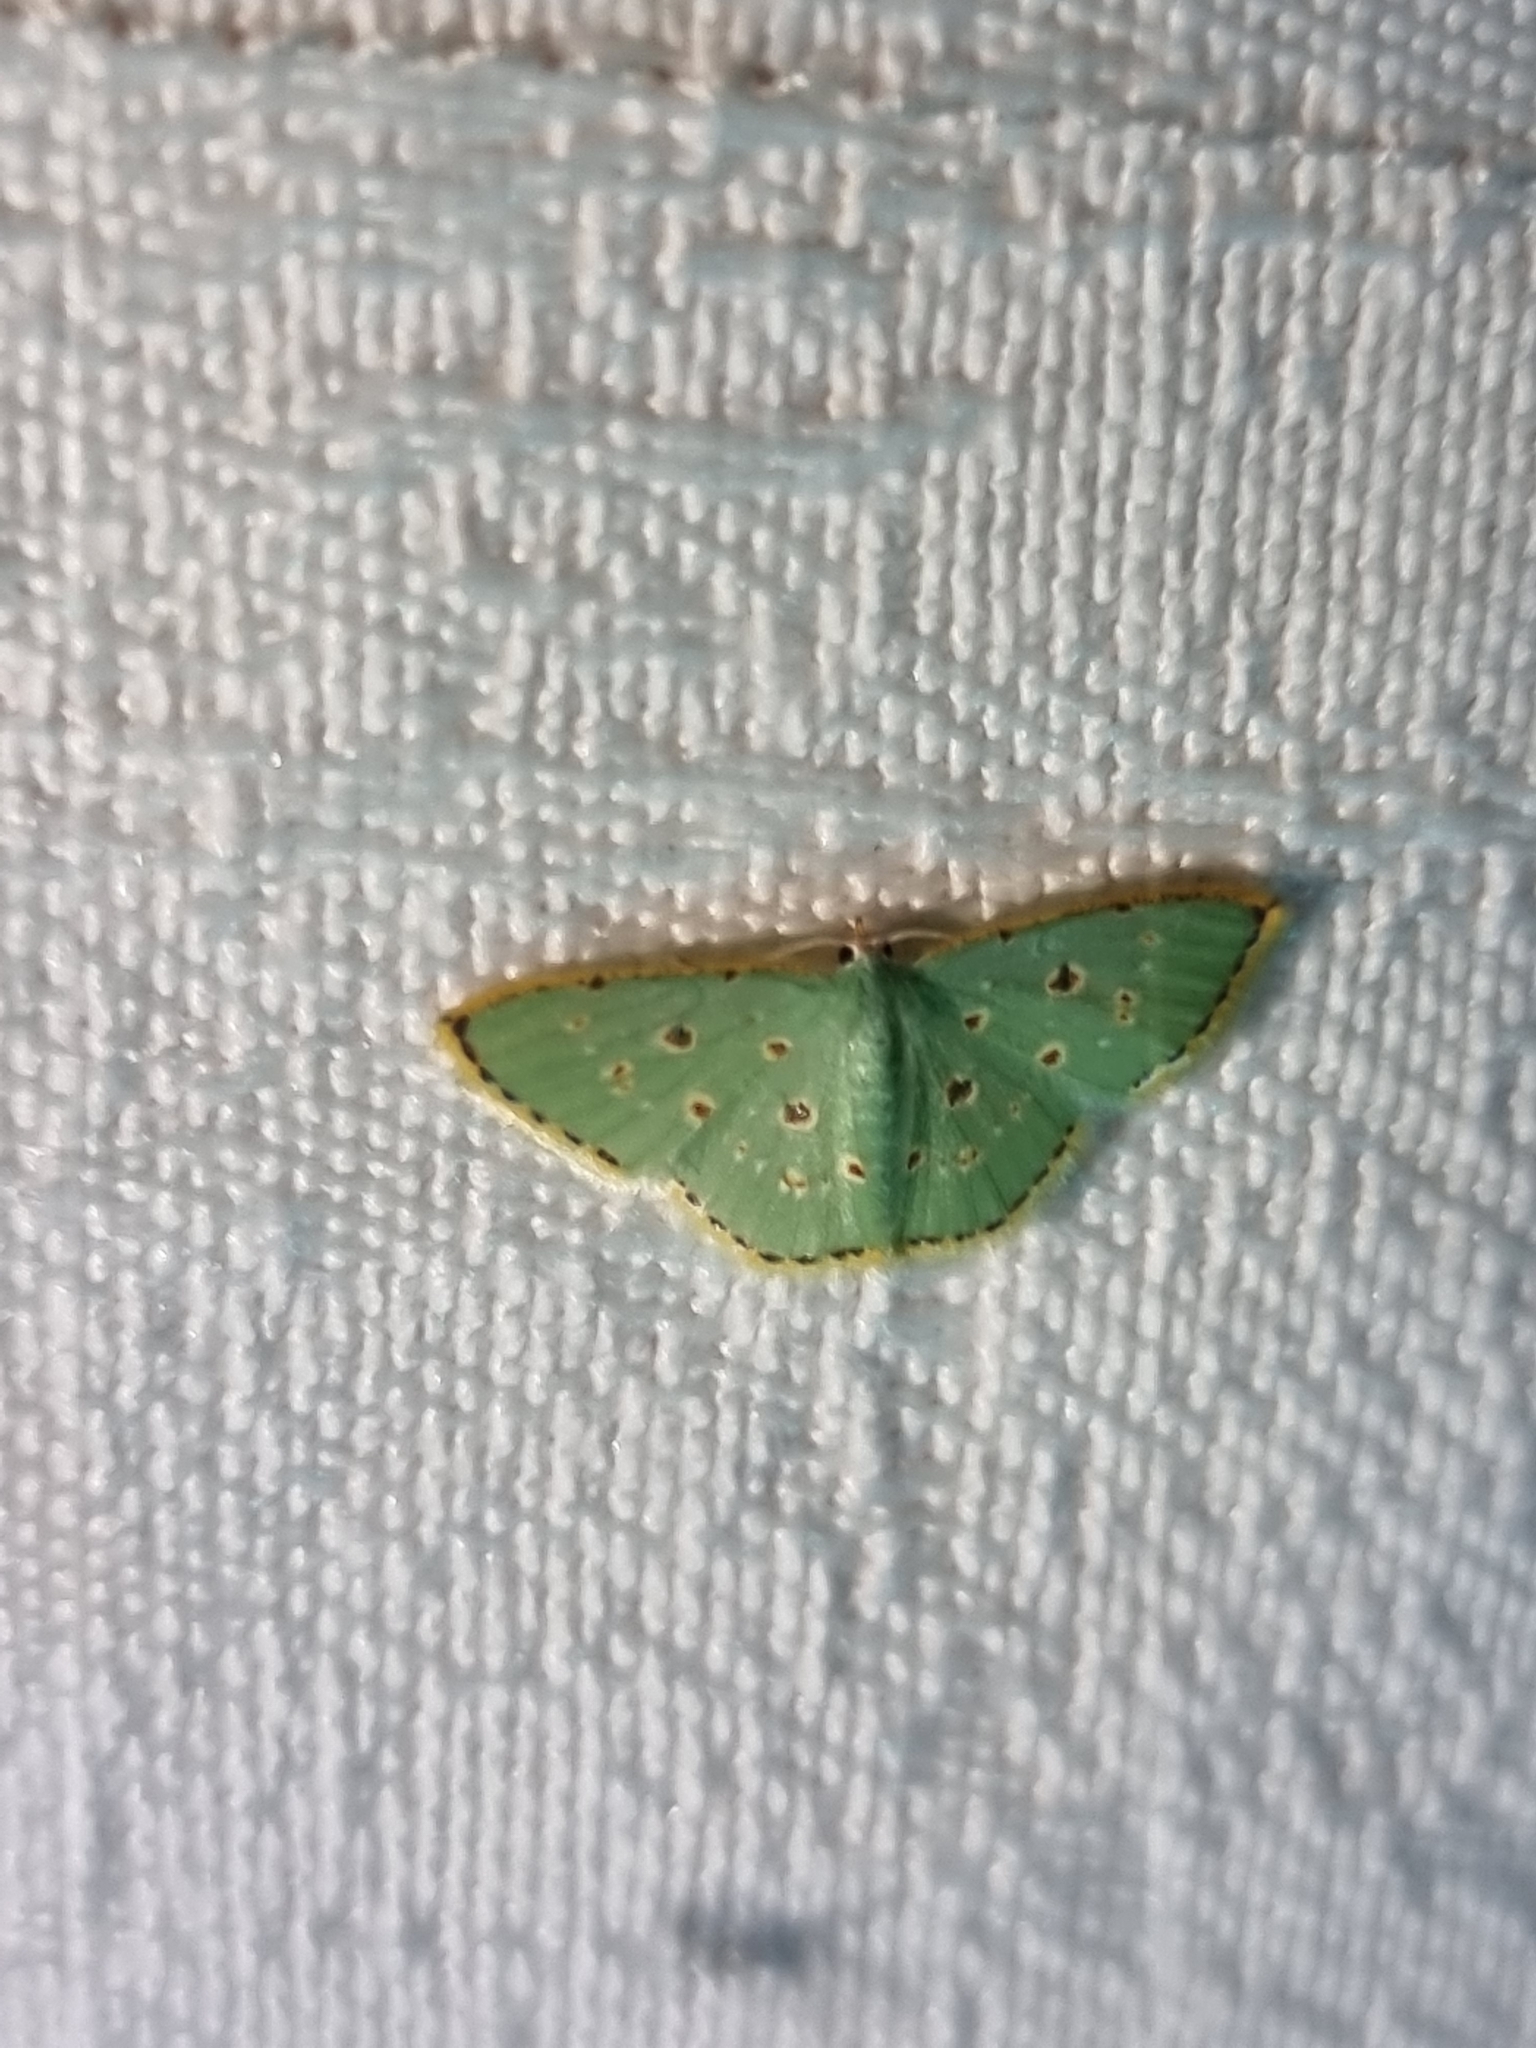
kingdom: Animalia
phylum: Arthropoda
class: Insecta
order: Lepidoptera
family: Geometridae
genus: Comostola
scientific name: Comostola laesaria
